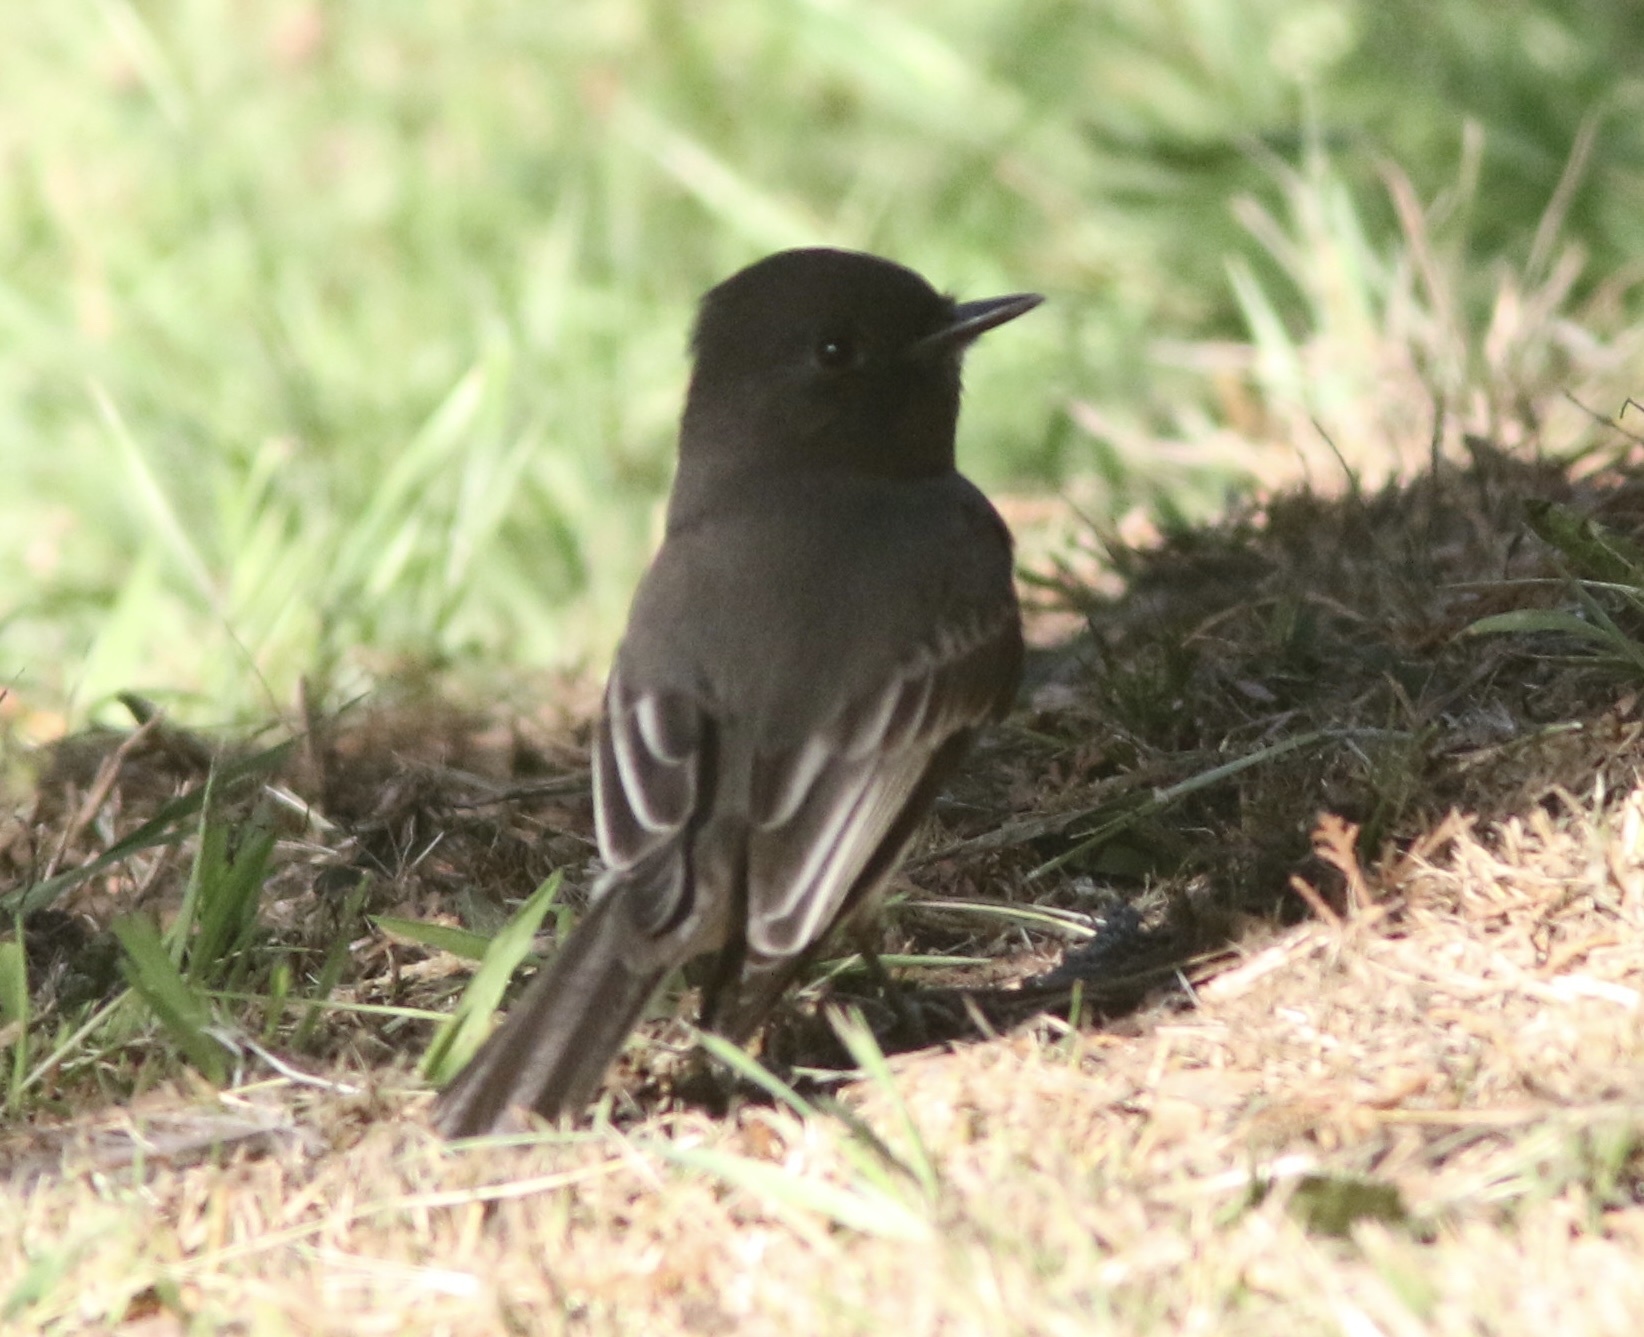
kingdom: Animalia
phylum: Chordata
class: Aves
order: Passeriformes
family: Tyrannidae
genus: Sayornis
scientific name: Sayornis nigricans
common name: Black phoebe
